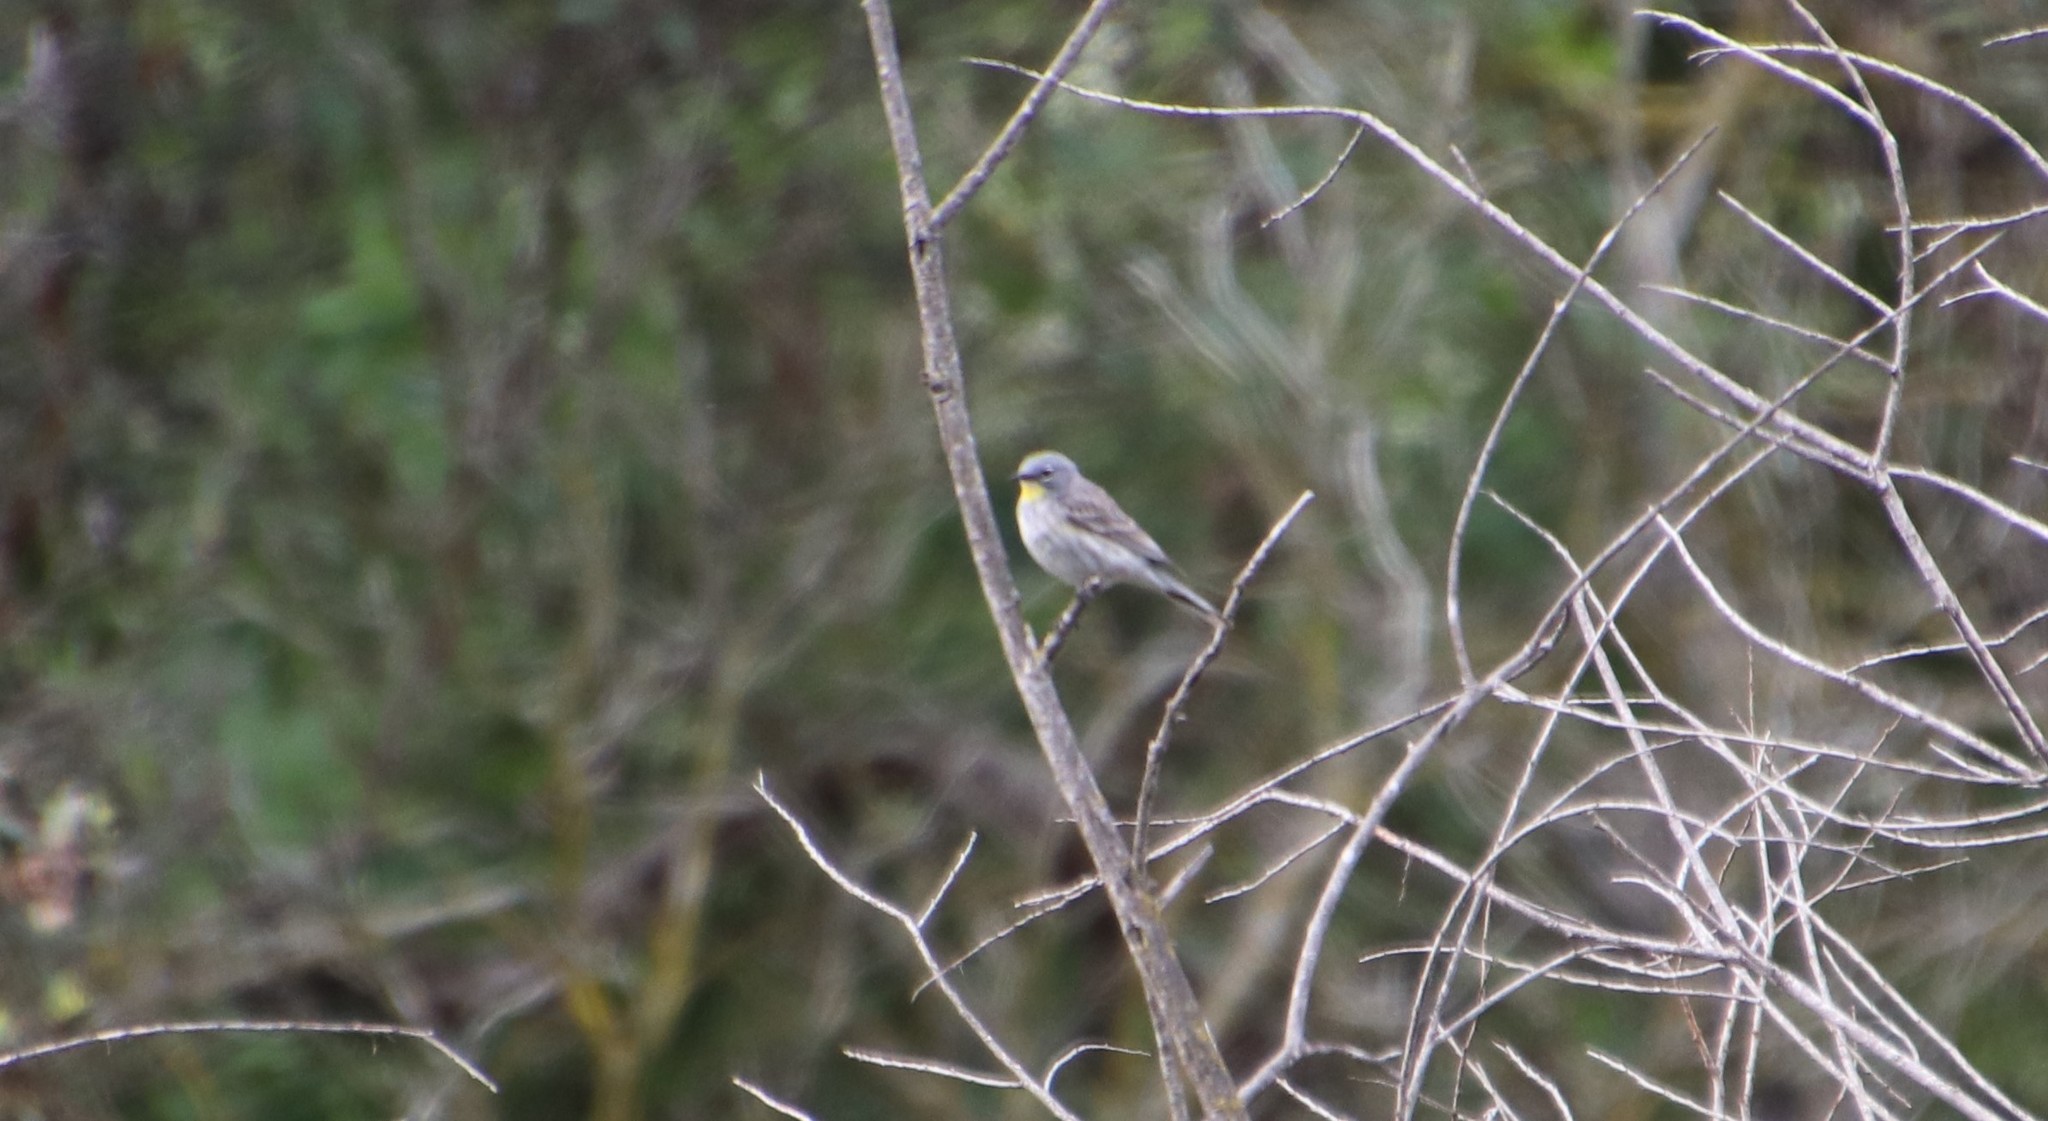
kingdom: Animalia
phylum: Chordata
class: Aves
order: Passeriformes
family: Parulidae
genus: Setophaga
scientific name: Setophaga auduboni
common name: Audubon's warbler
